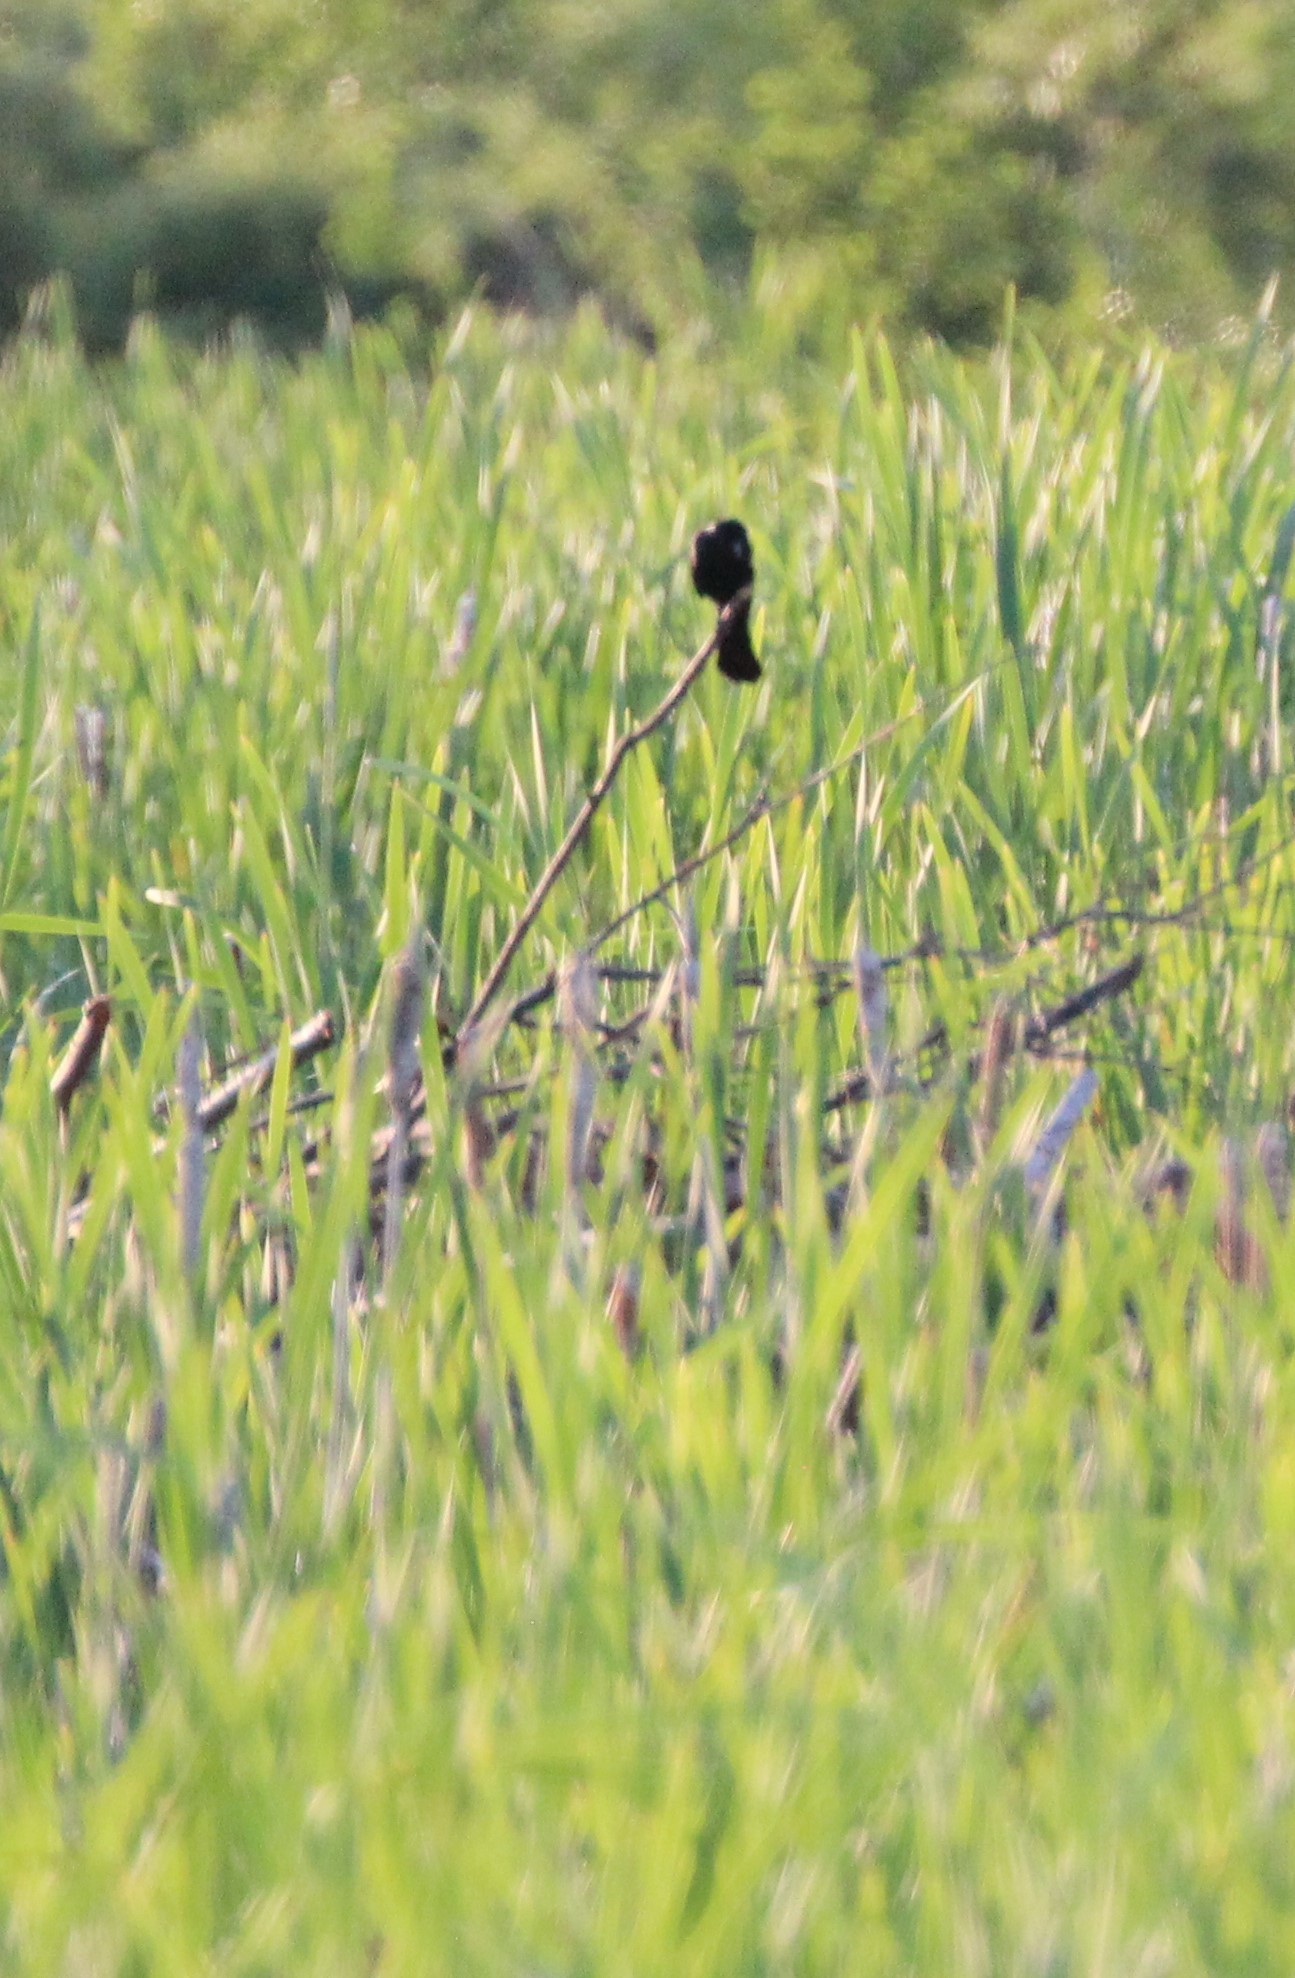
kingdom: Animalia
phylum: Chordata
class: Aves
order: Passeriformes
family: Icteridae
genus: Agelaius
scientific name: Agelaius phoeniceus
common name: Red-winged blackbird
